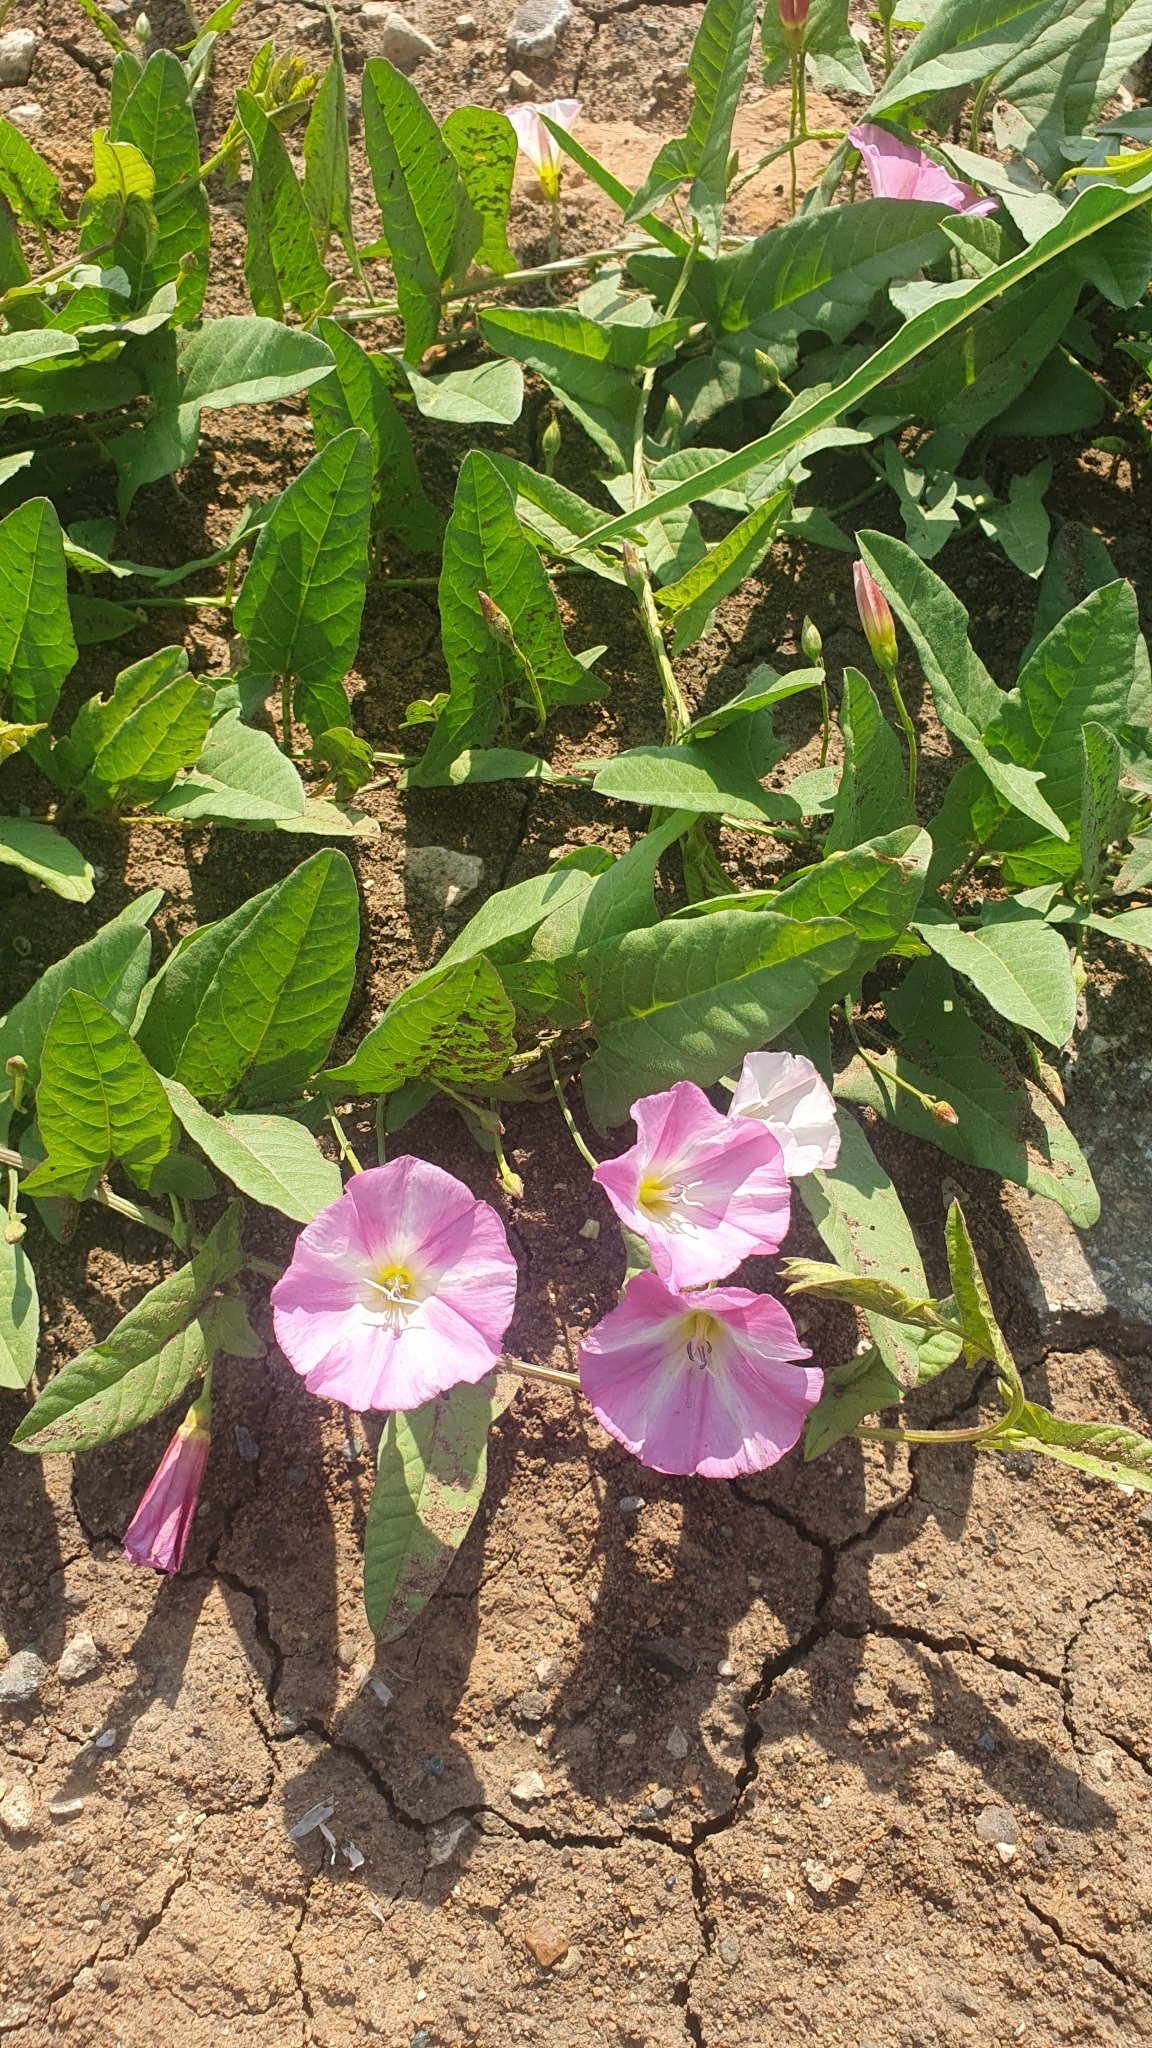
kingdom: Plantae
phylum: Tracheophyta
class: Magnoliopsida
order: Solanales
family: Convolvulaceae
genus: Convolvulus
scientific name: Convolvulus arvensis
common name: Field bindweed
